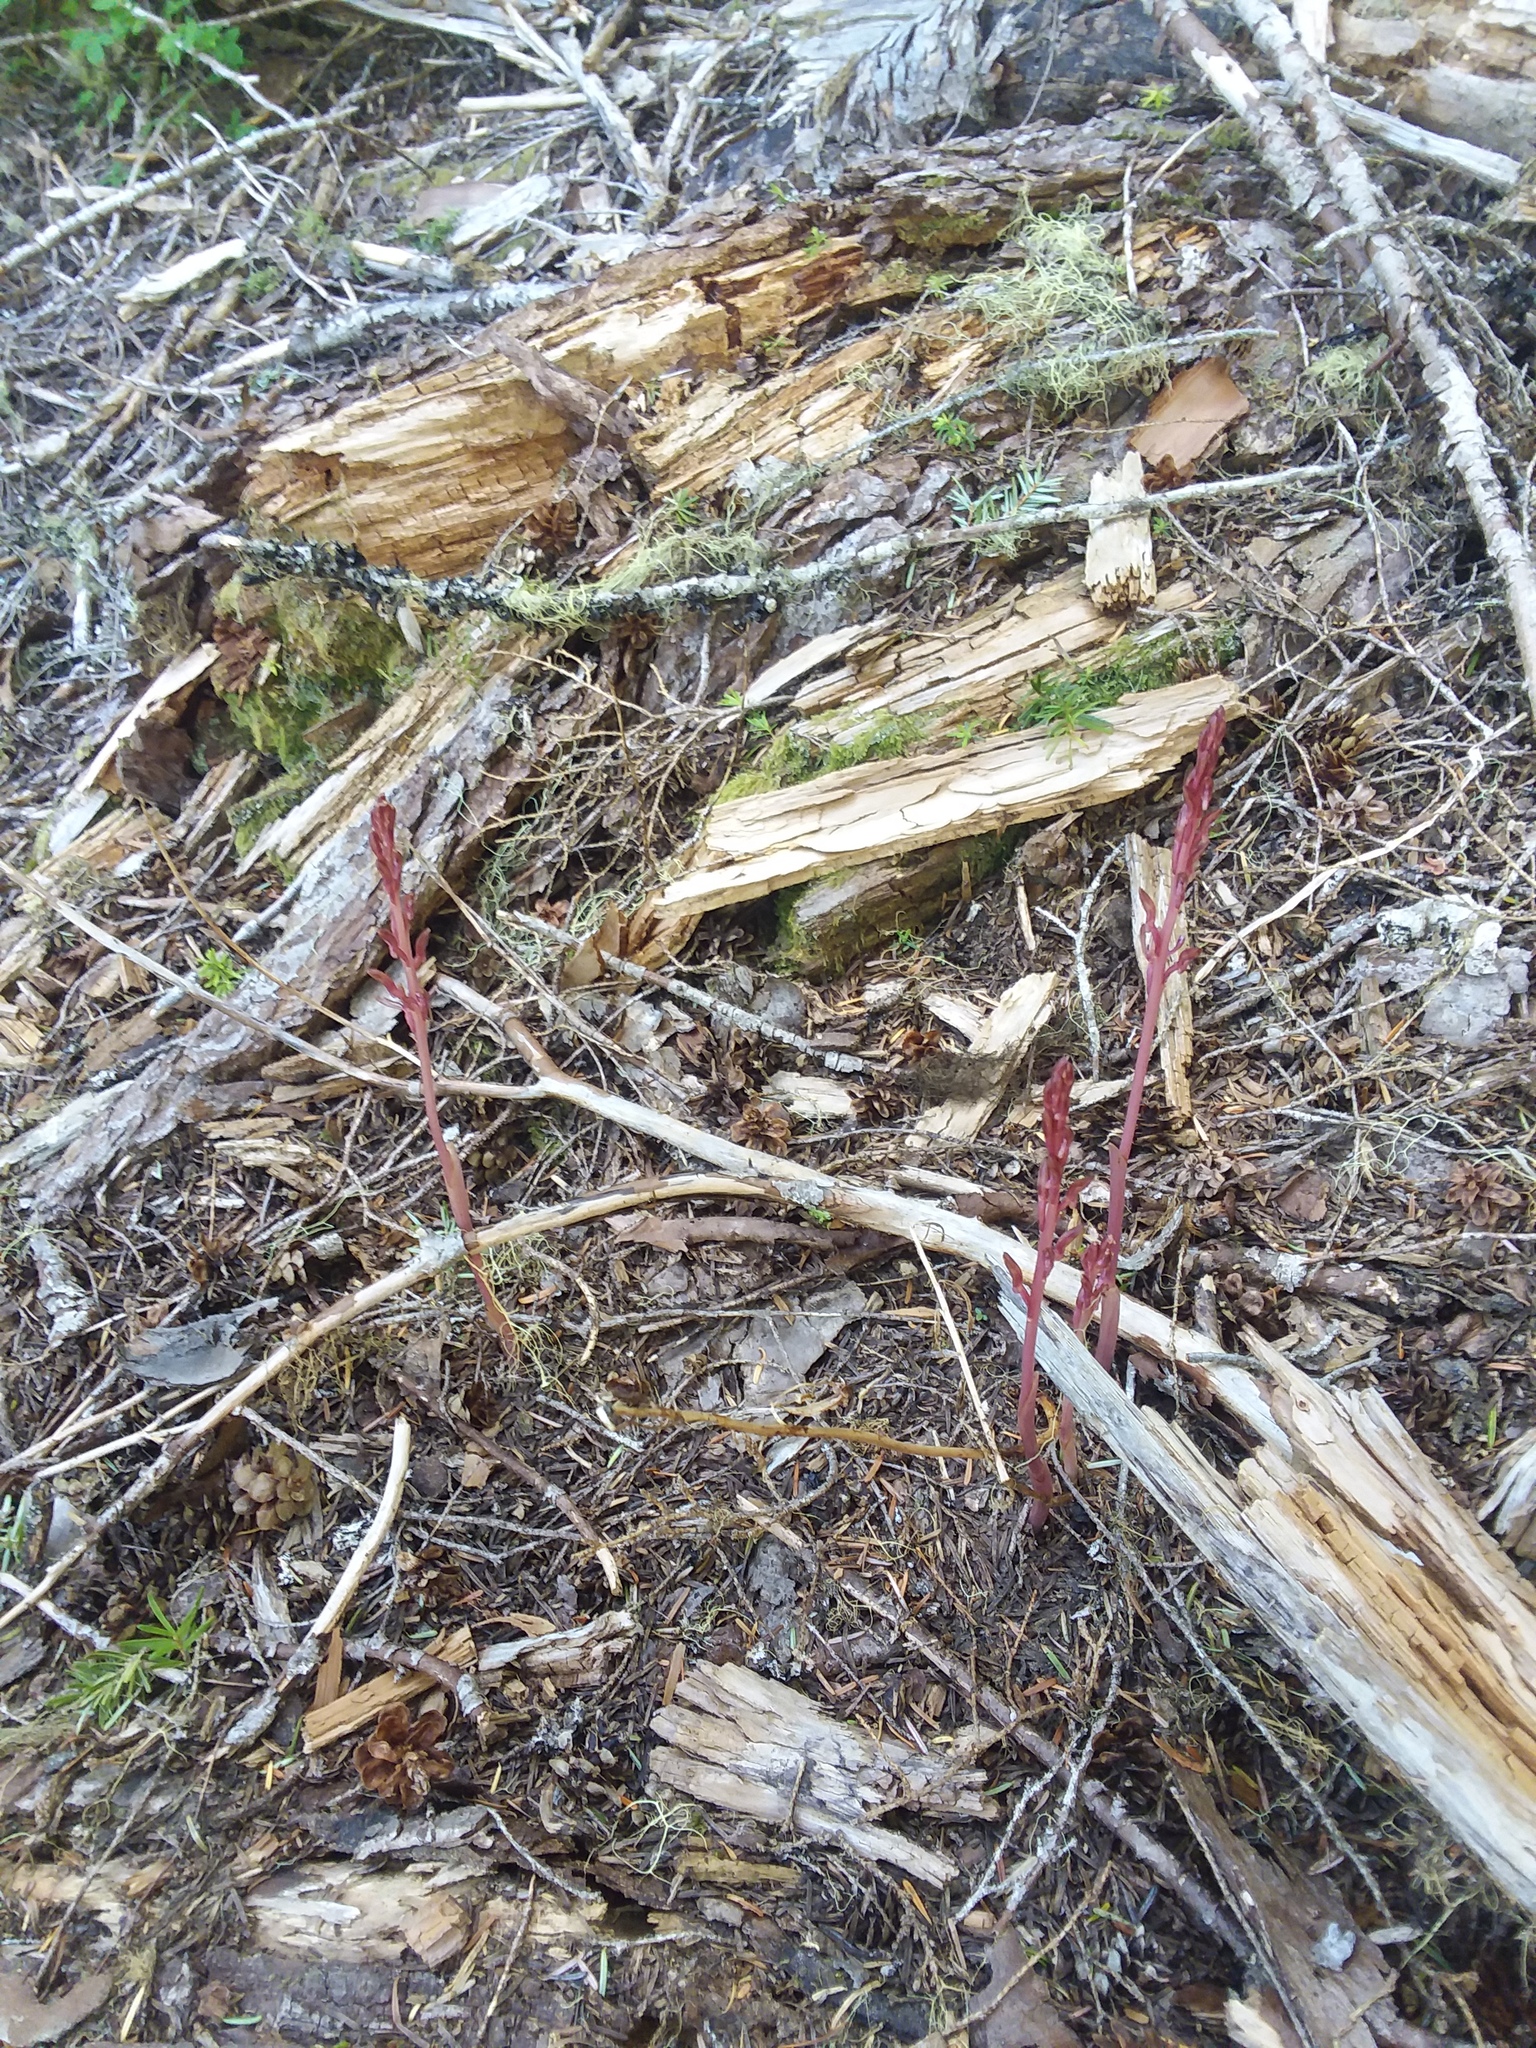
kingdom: Plantae
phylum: Tracheophyta
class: Liliopsida
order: Asparagales
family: Orchidaceae
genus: Corallorhiza
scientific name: Corallorhiza mertensiana
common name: Pacific coralroot
